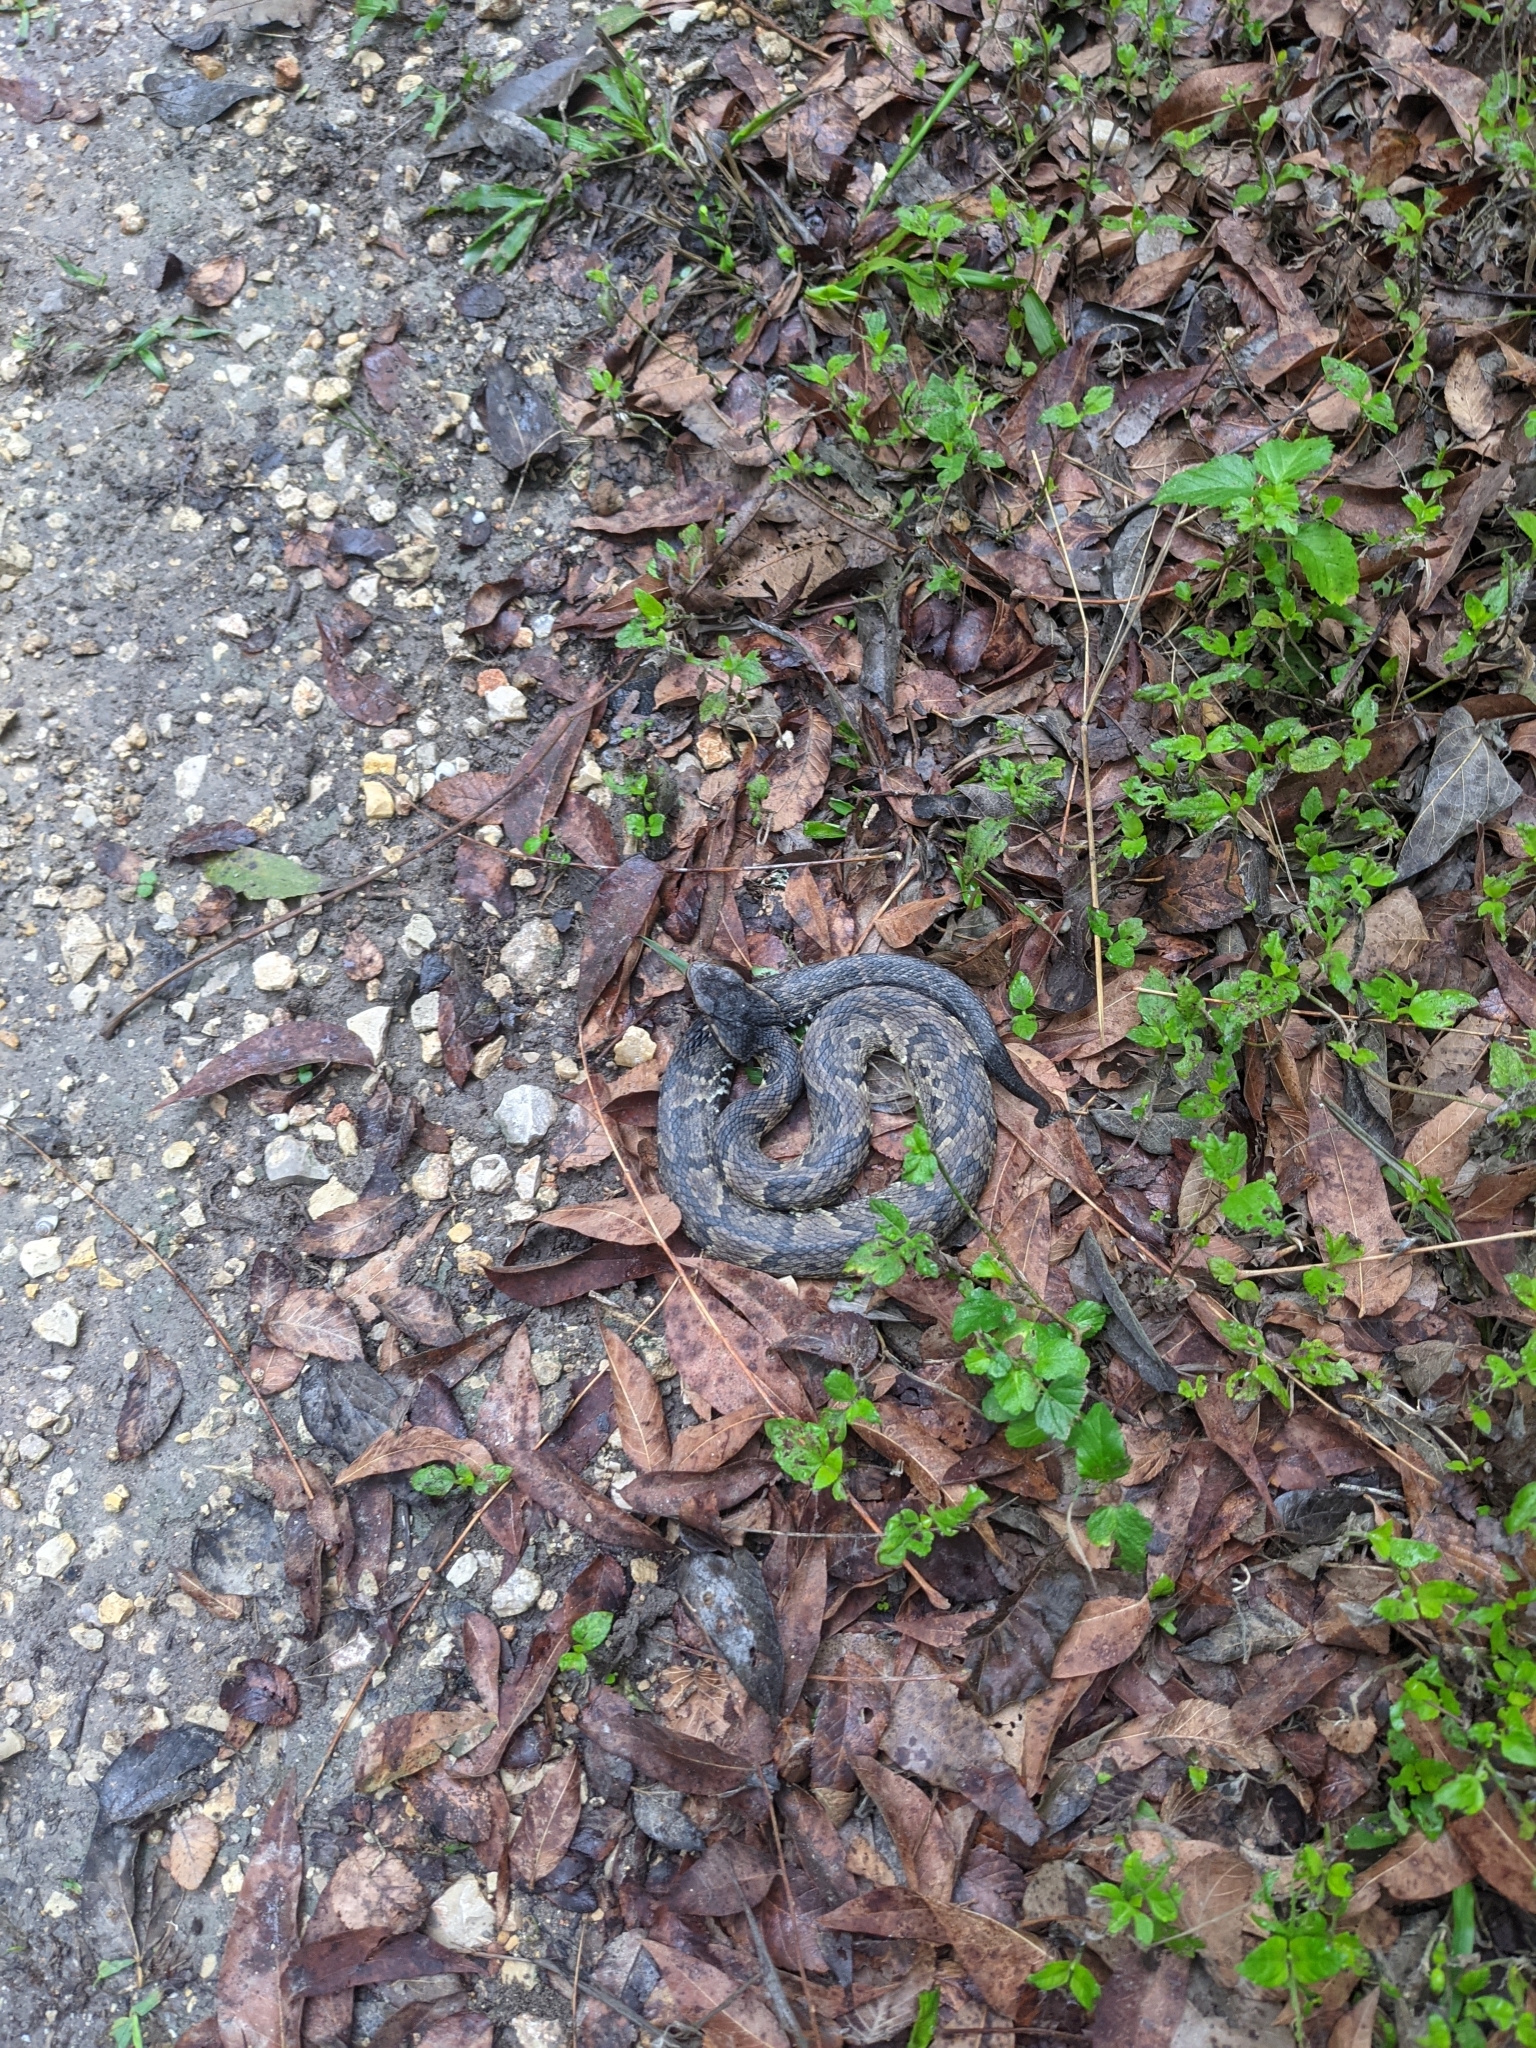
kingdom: Animalia
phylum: Chordata
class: Squamata
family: Viperidae
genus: Agkistrodon
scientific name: Agkistrodon piscivorus
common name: Cottonmouth
